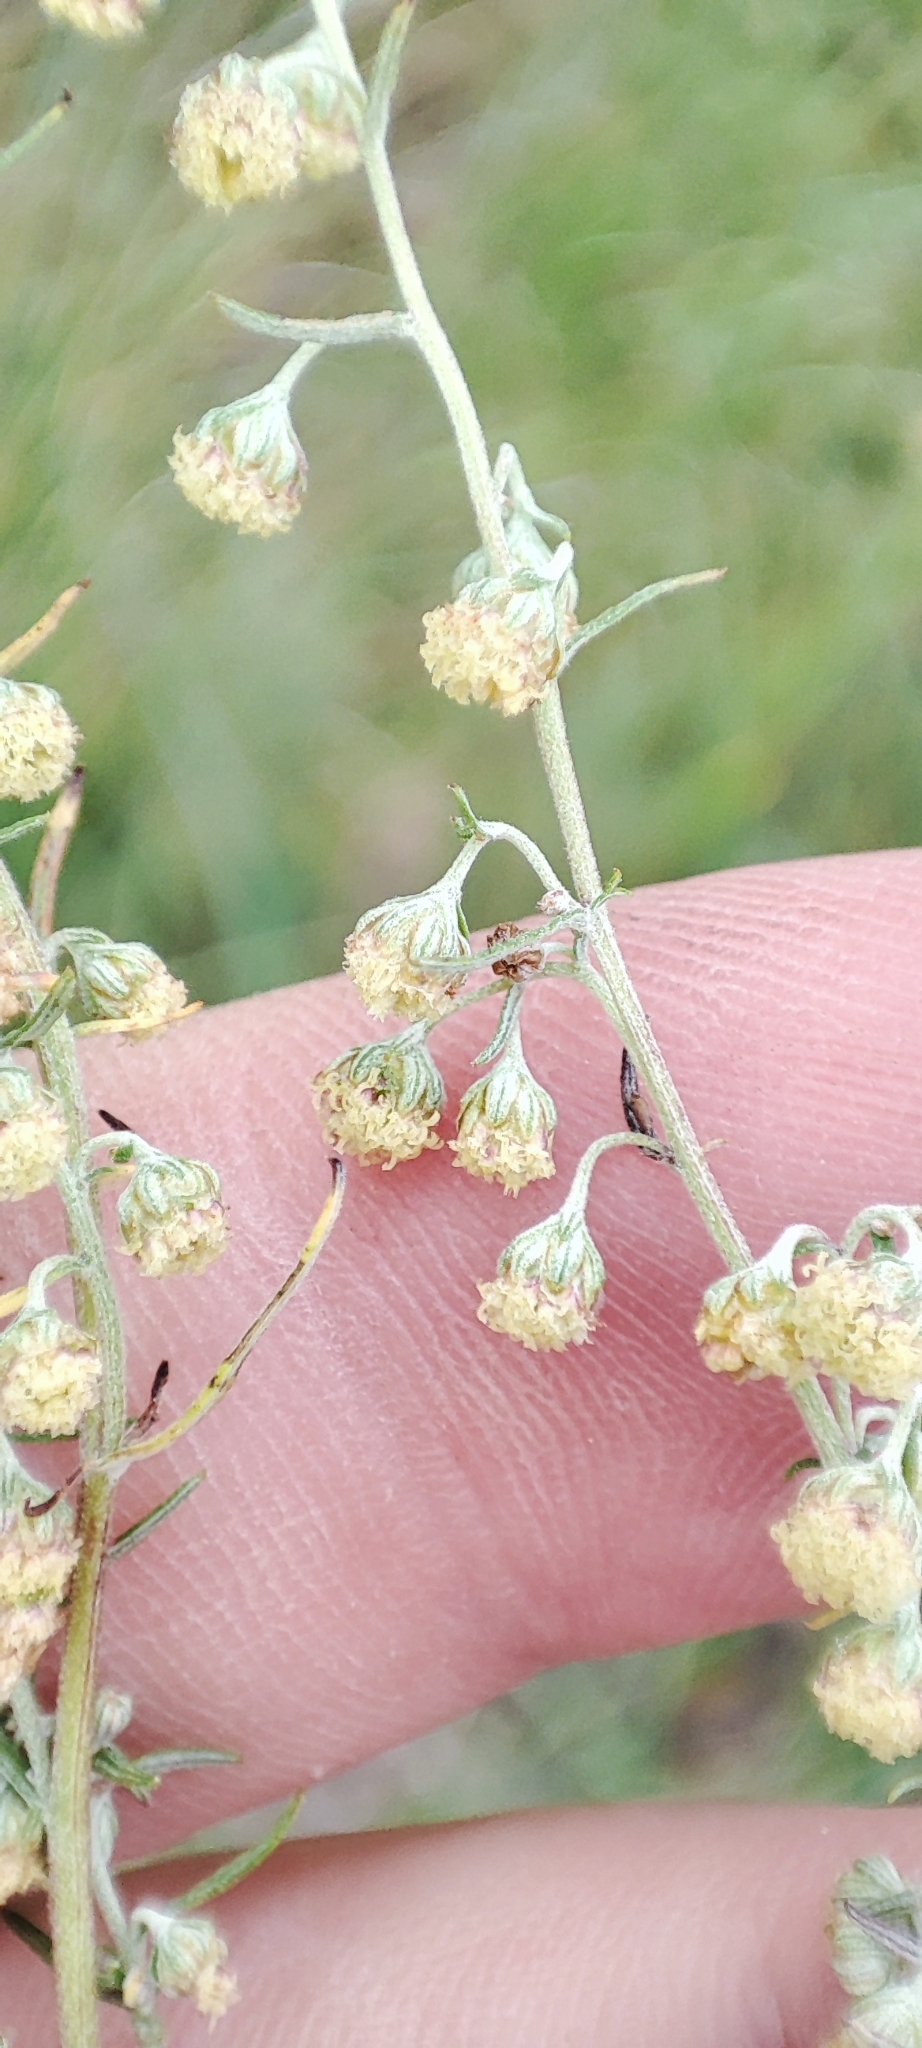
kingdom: Plantae
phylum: Tracheophyta
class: Magnoliopsida
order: Asterales
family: Asteraceae
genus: Artemisia
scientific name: Artemisia macrantha
